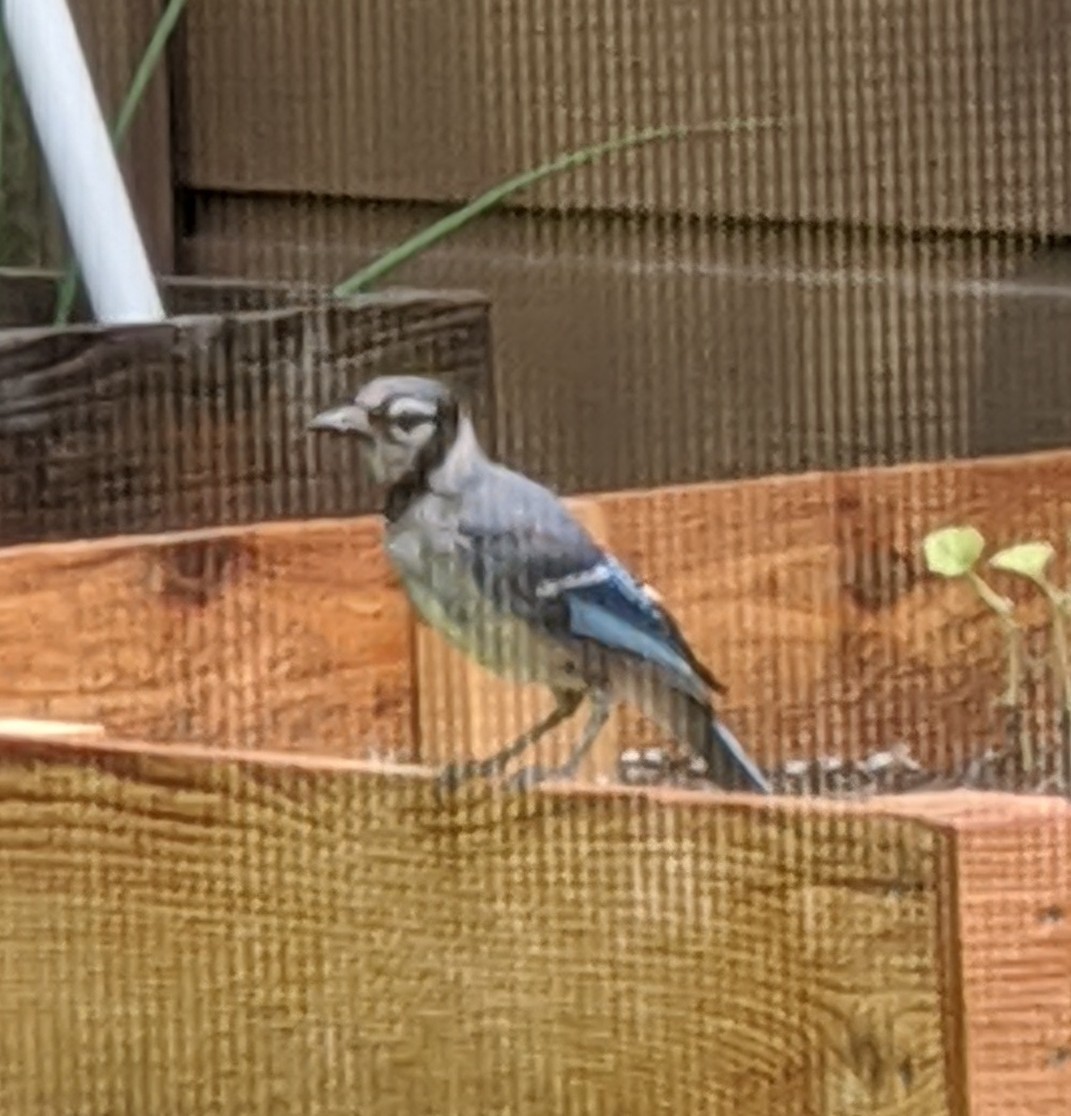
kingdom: Animalia
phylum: Chordata
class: Aves
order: Passeriformes
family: Corvidae
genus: Cyanocitta
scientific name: Cyanocitta cristata
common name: Blue jay
